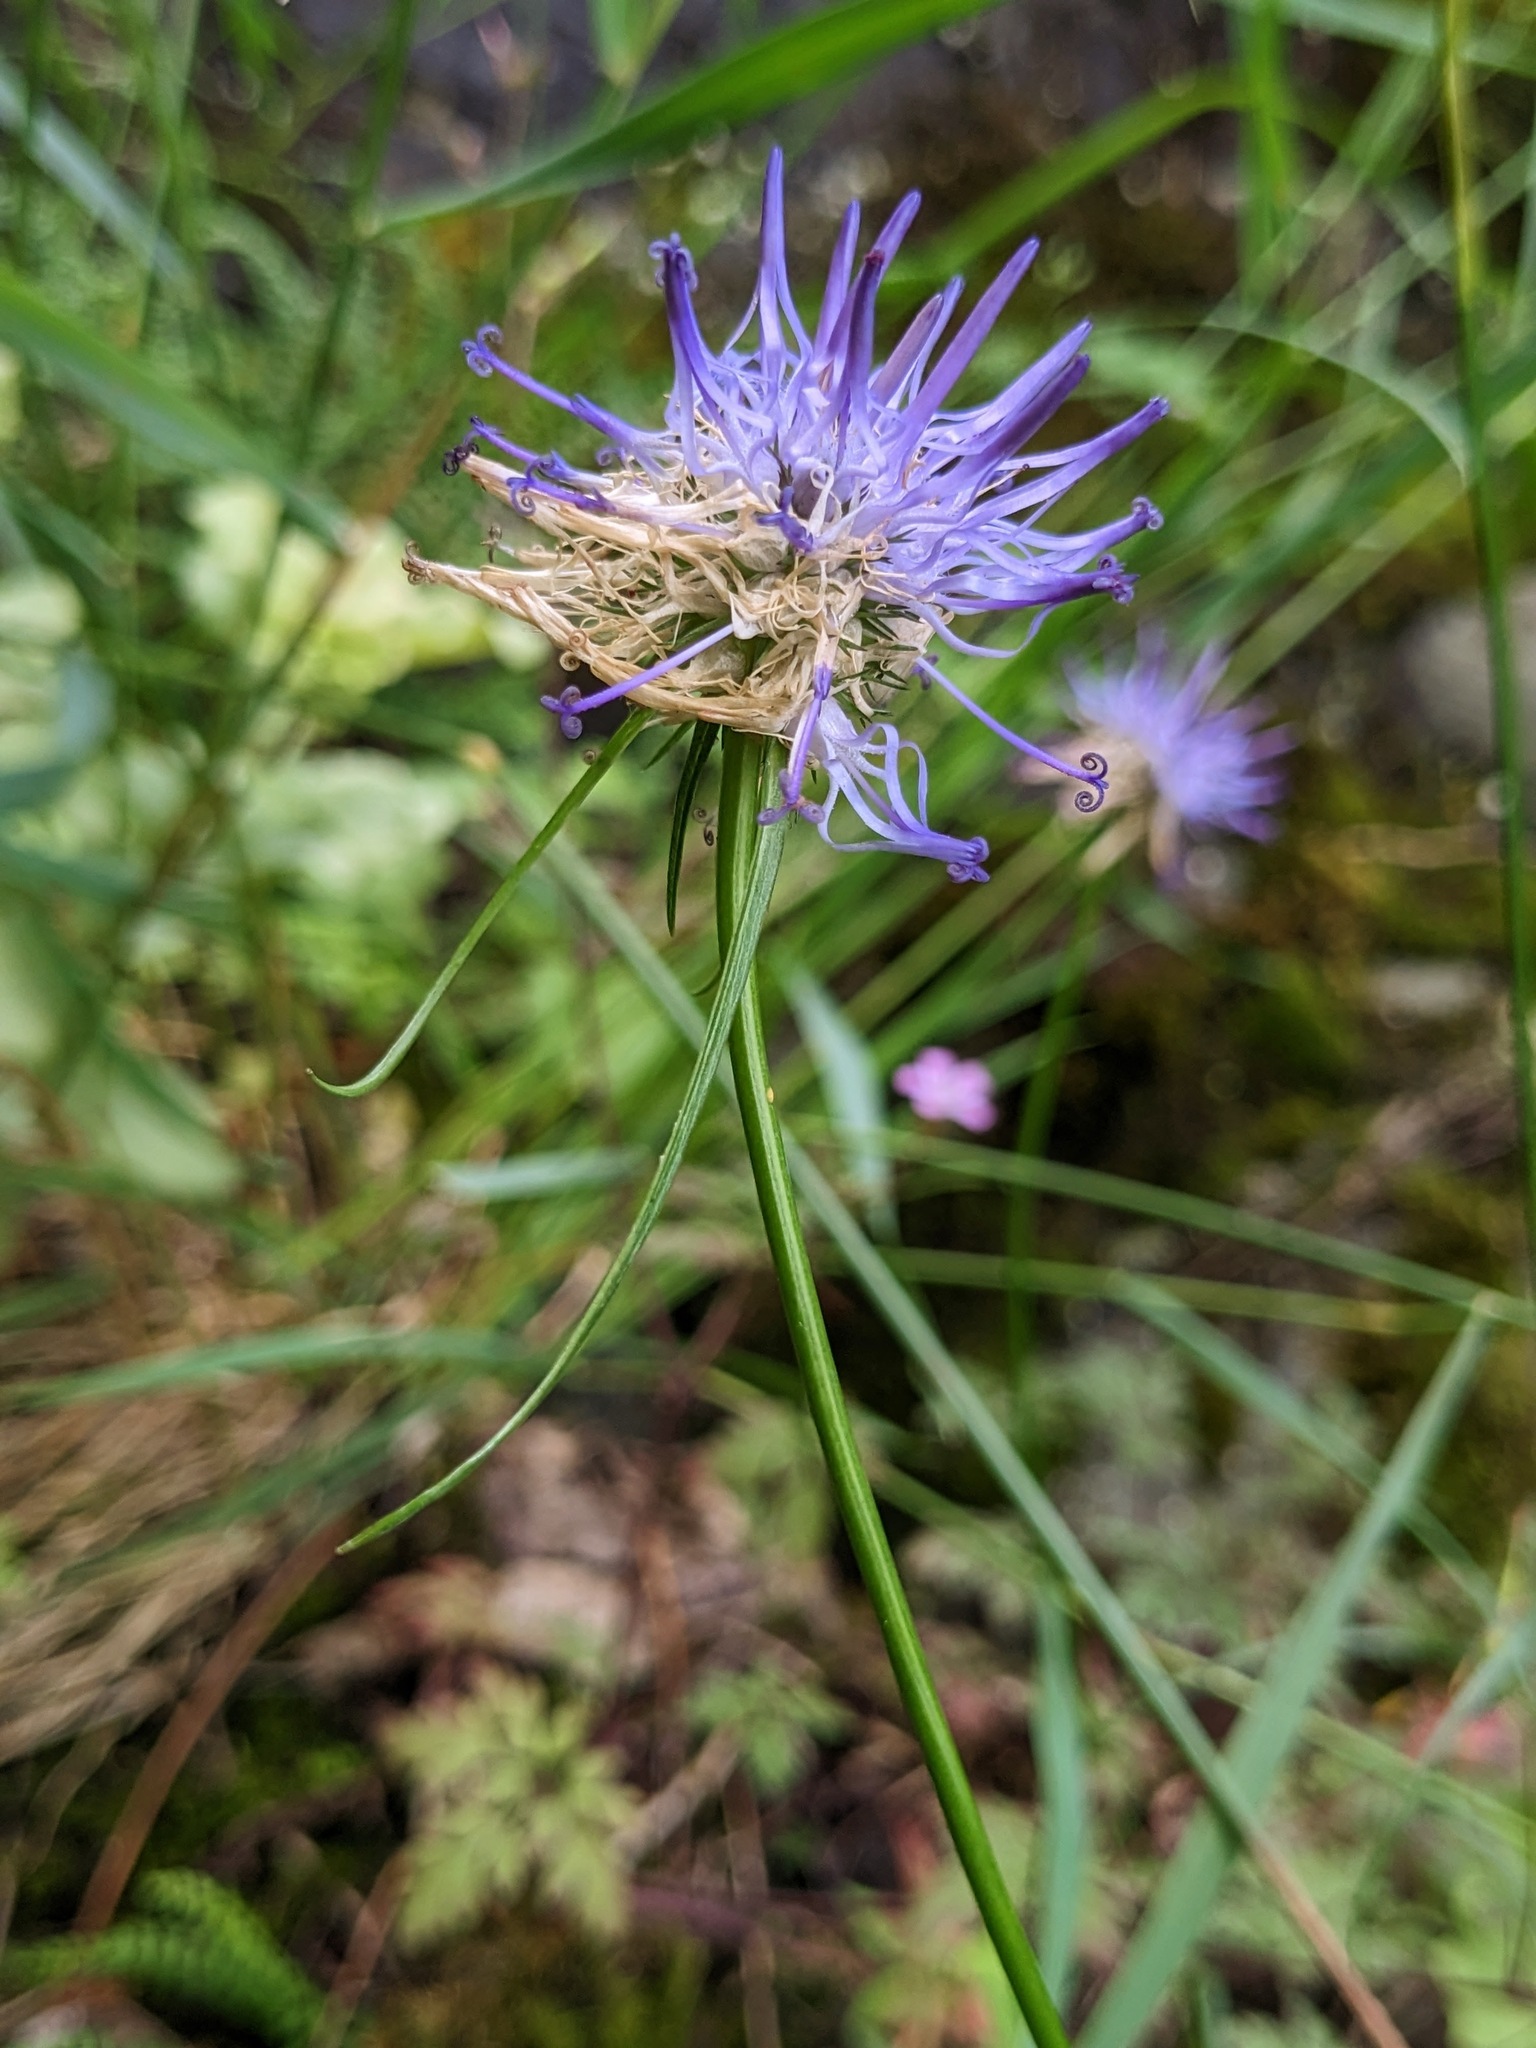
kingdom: Plantae
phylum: Tracheophyta
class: Magnoliopsida
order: Asterales
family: Campanulaceae
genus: Phyteuma
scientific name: Phyteuma scheuchzeri
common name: Oxford rampion
